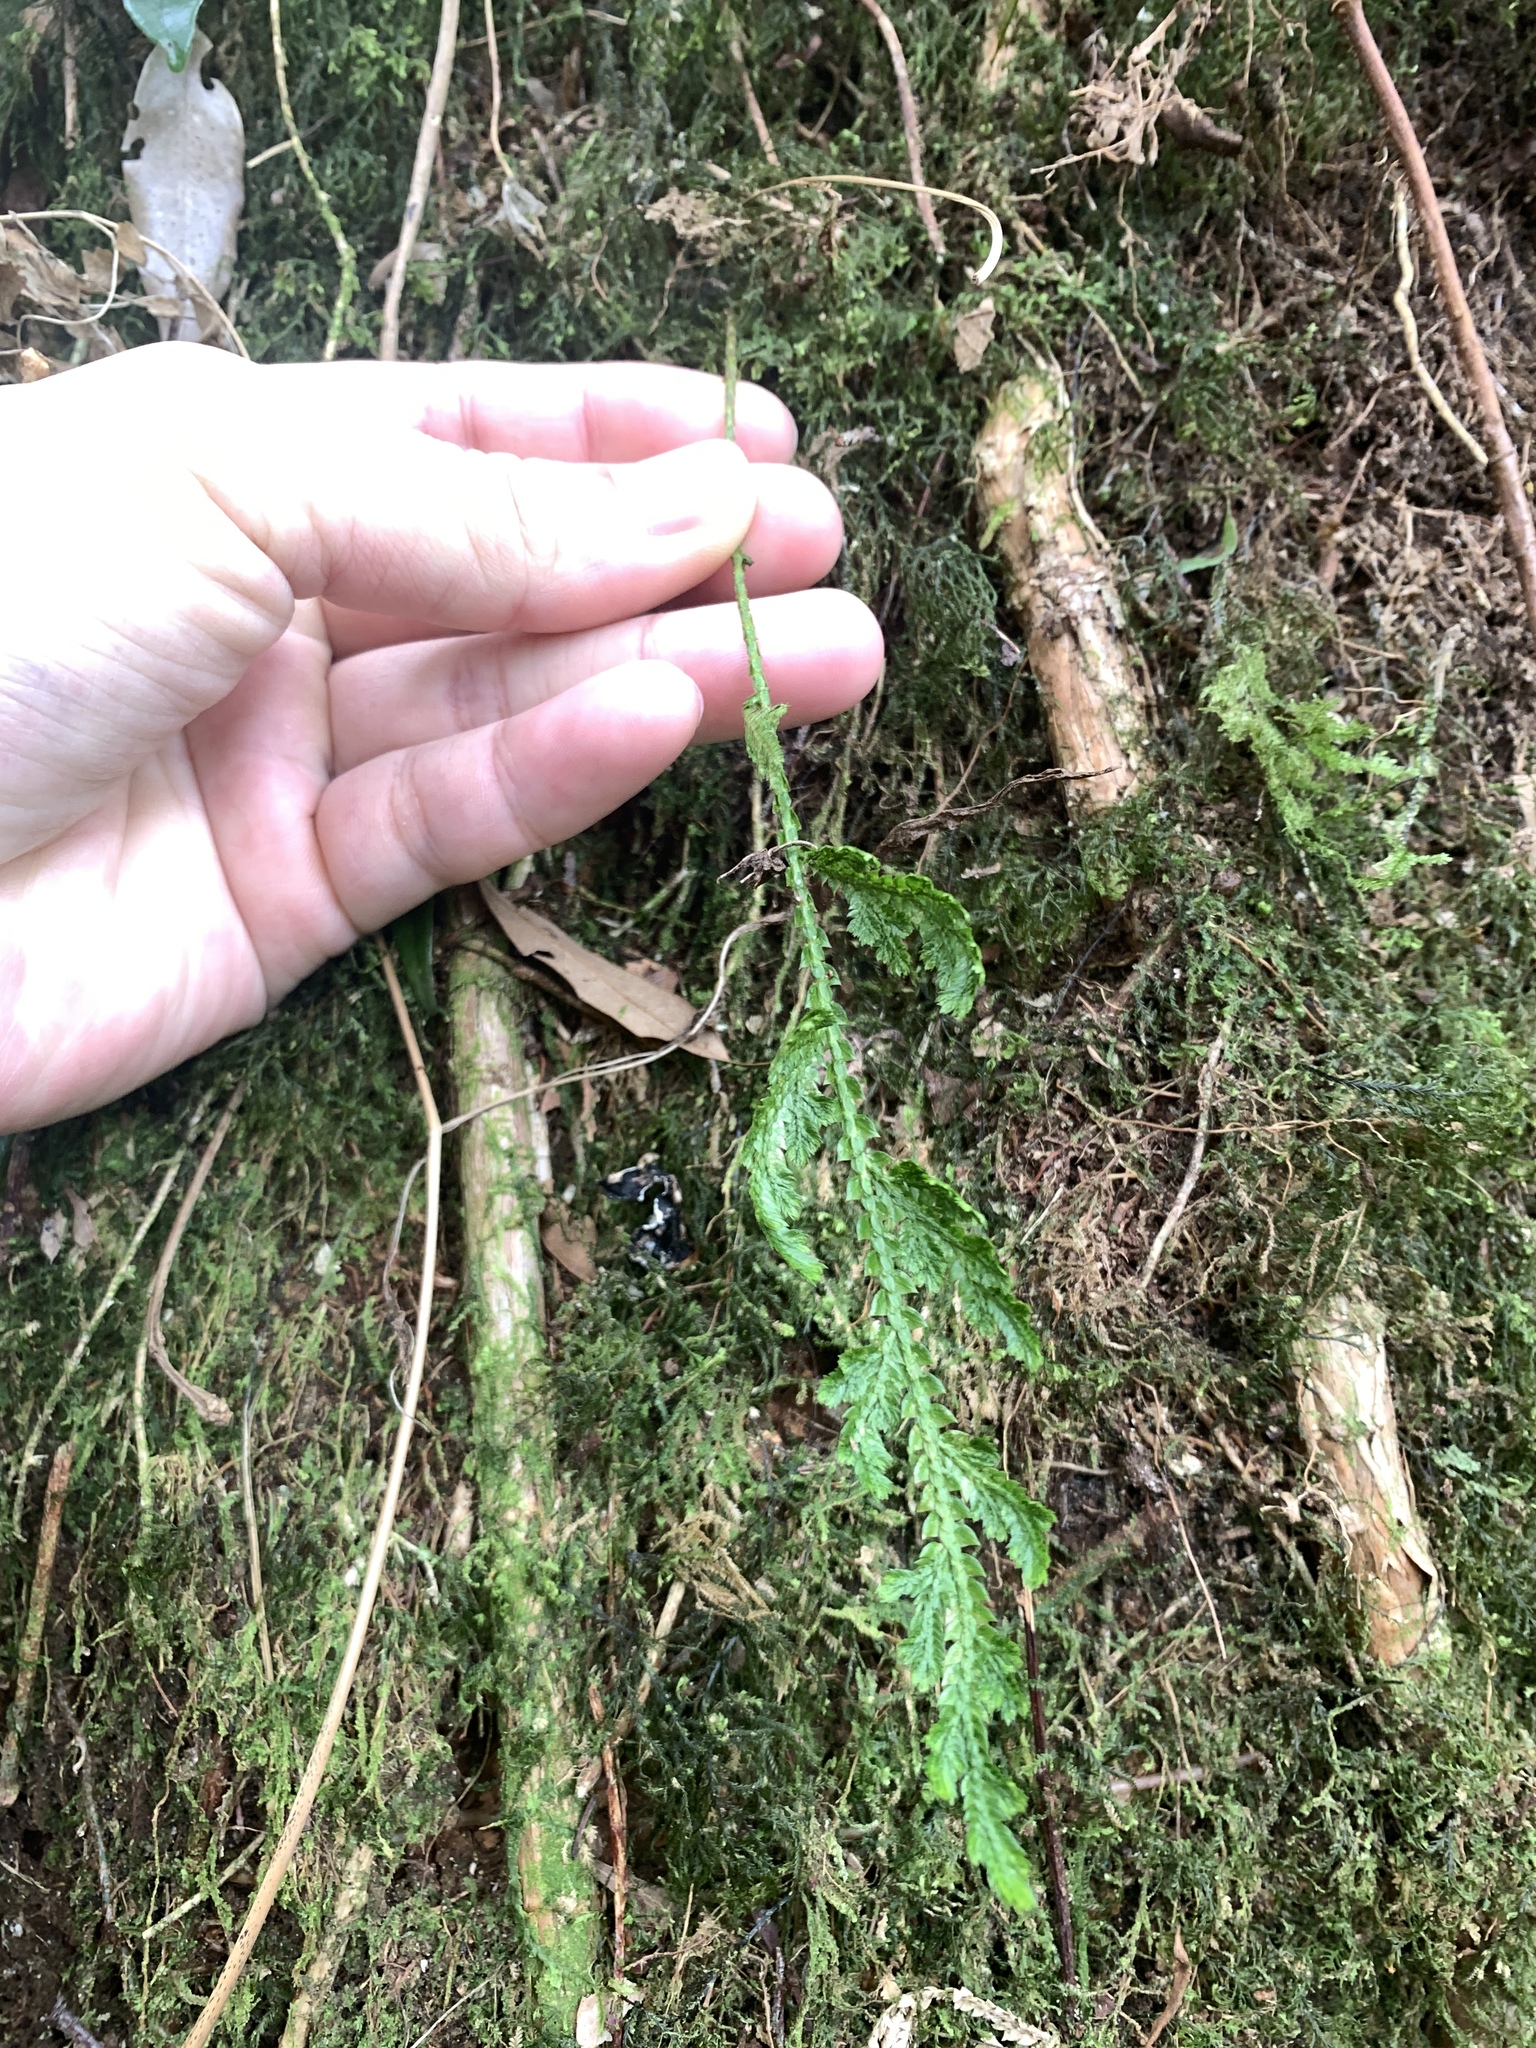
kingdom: Plantae
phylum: Tracheophyta
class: Lycopodiopsida
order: Selaginellales
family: Selaginellaceae
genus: Selaginella
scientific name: Selaginella involvens
